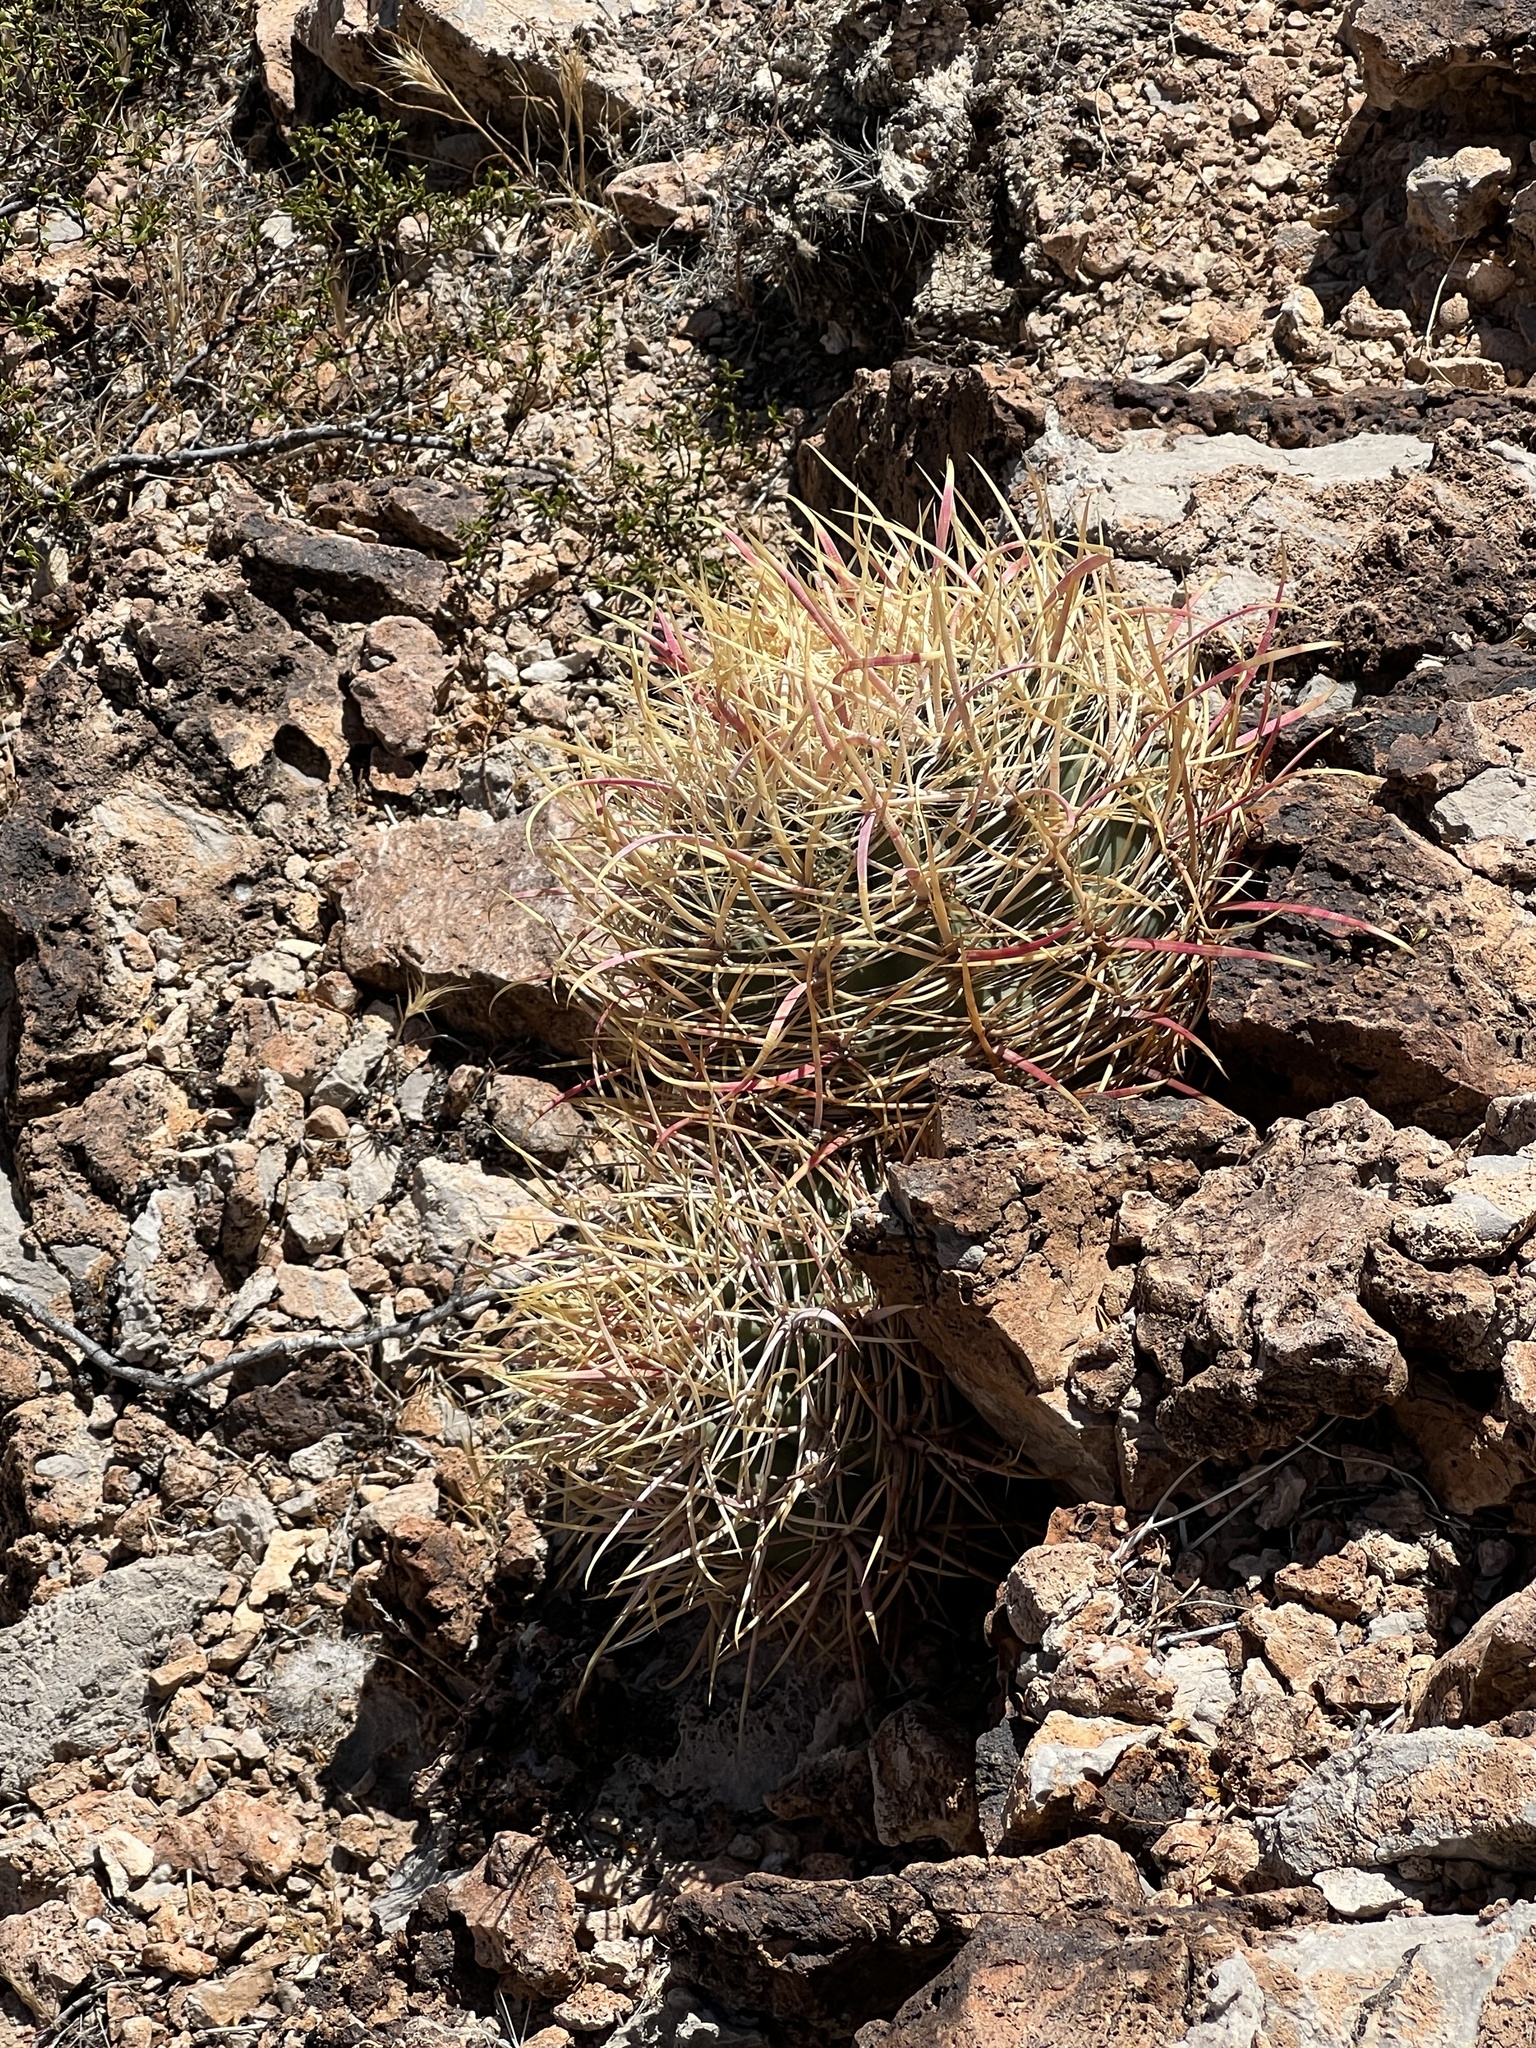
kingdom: Plantae
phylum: Tracheophyta
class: Magnoliopsida
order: Caryophyllales
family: Cactaceae
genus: Ferocactus
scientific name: Ferocactus cylindraceus
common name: California barrel cactus
